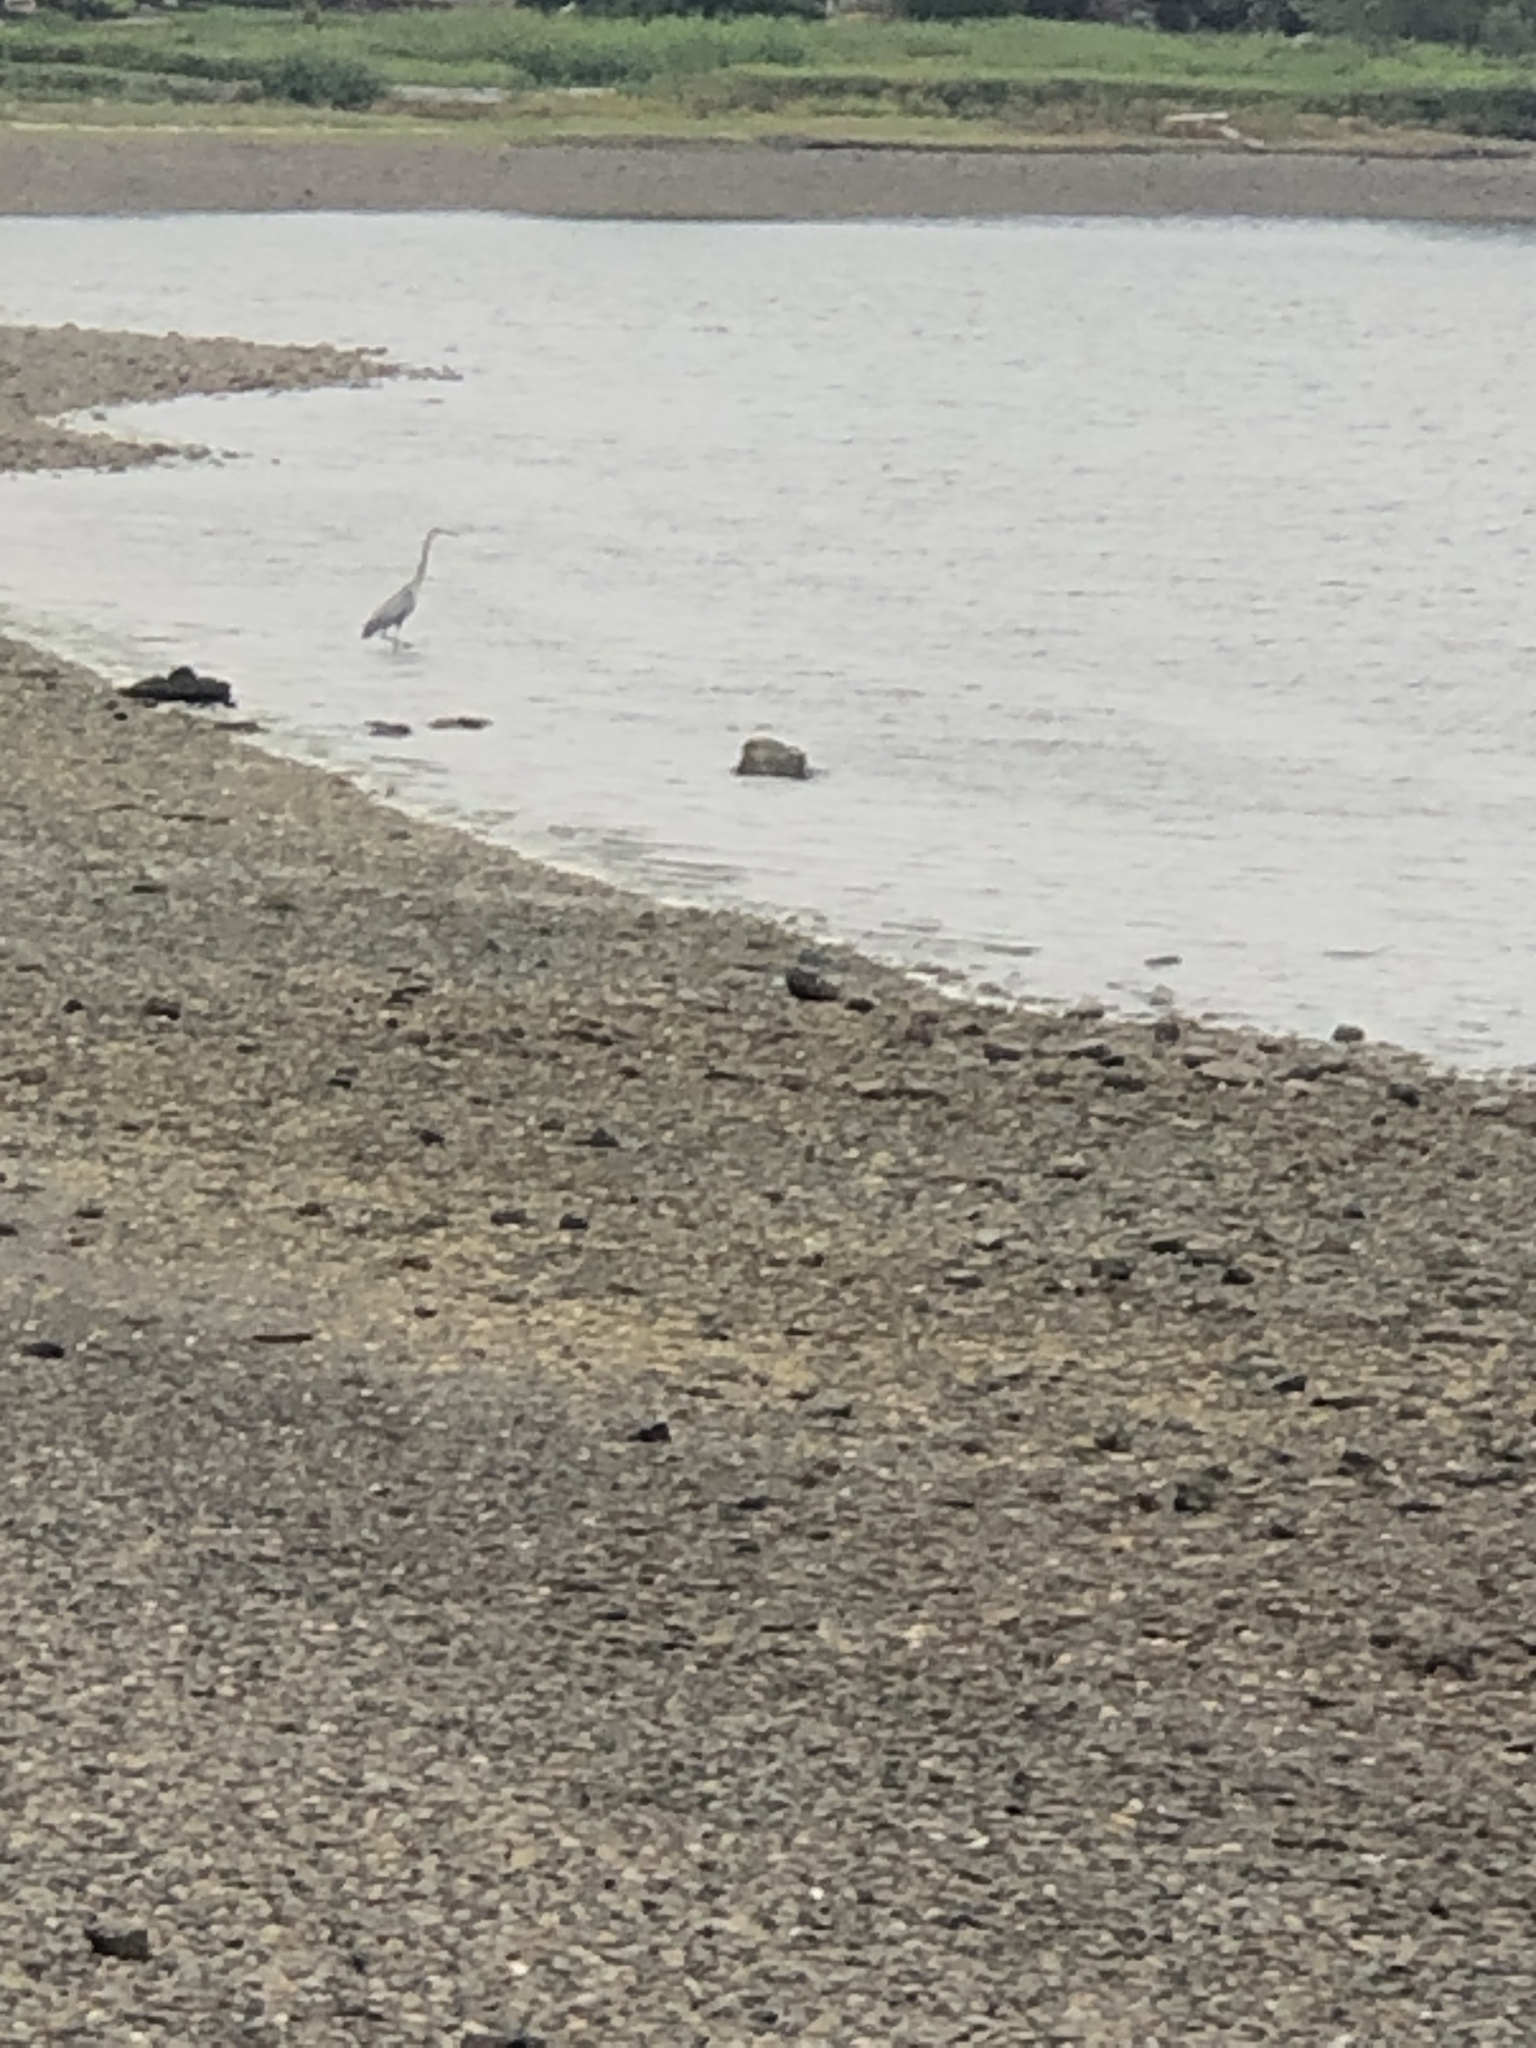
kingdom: Animalia
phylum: Chordata
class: Aves
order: Pelecaniformes
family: Ardeidae
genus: Ardea
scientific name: Ardea herodias
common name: Great blue heron
